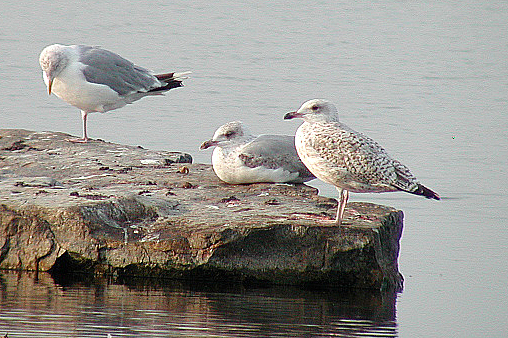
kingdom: Animalia
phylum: Chordata
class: Aves
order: Charadriiformes
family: Laridae
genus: Larus
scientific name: Larus argentatus
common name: Herring gull
